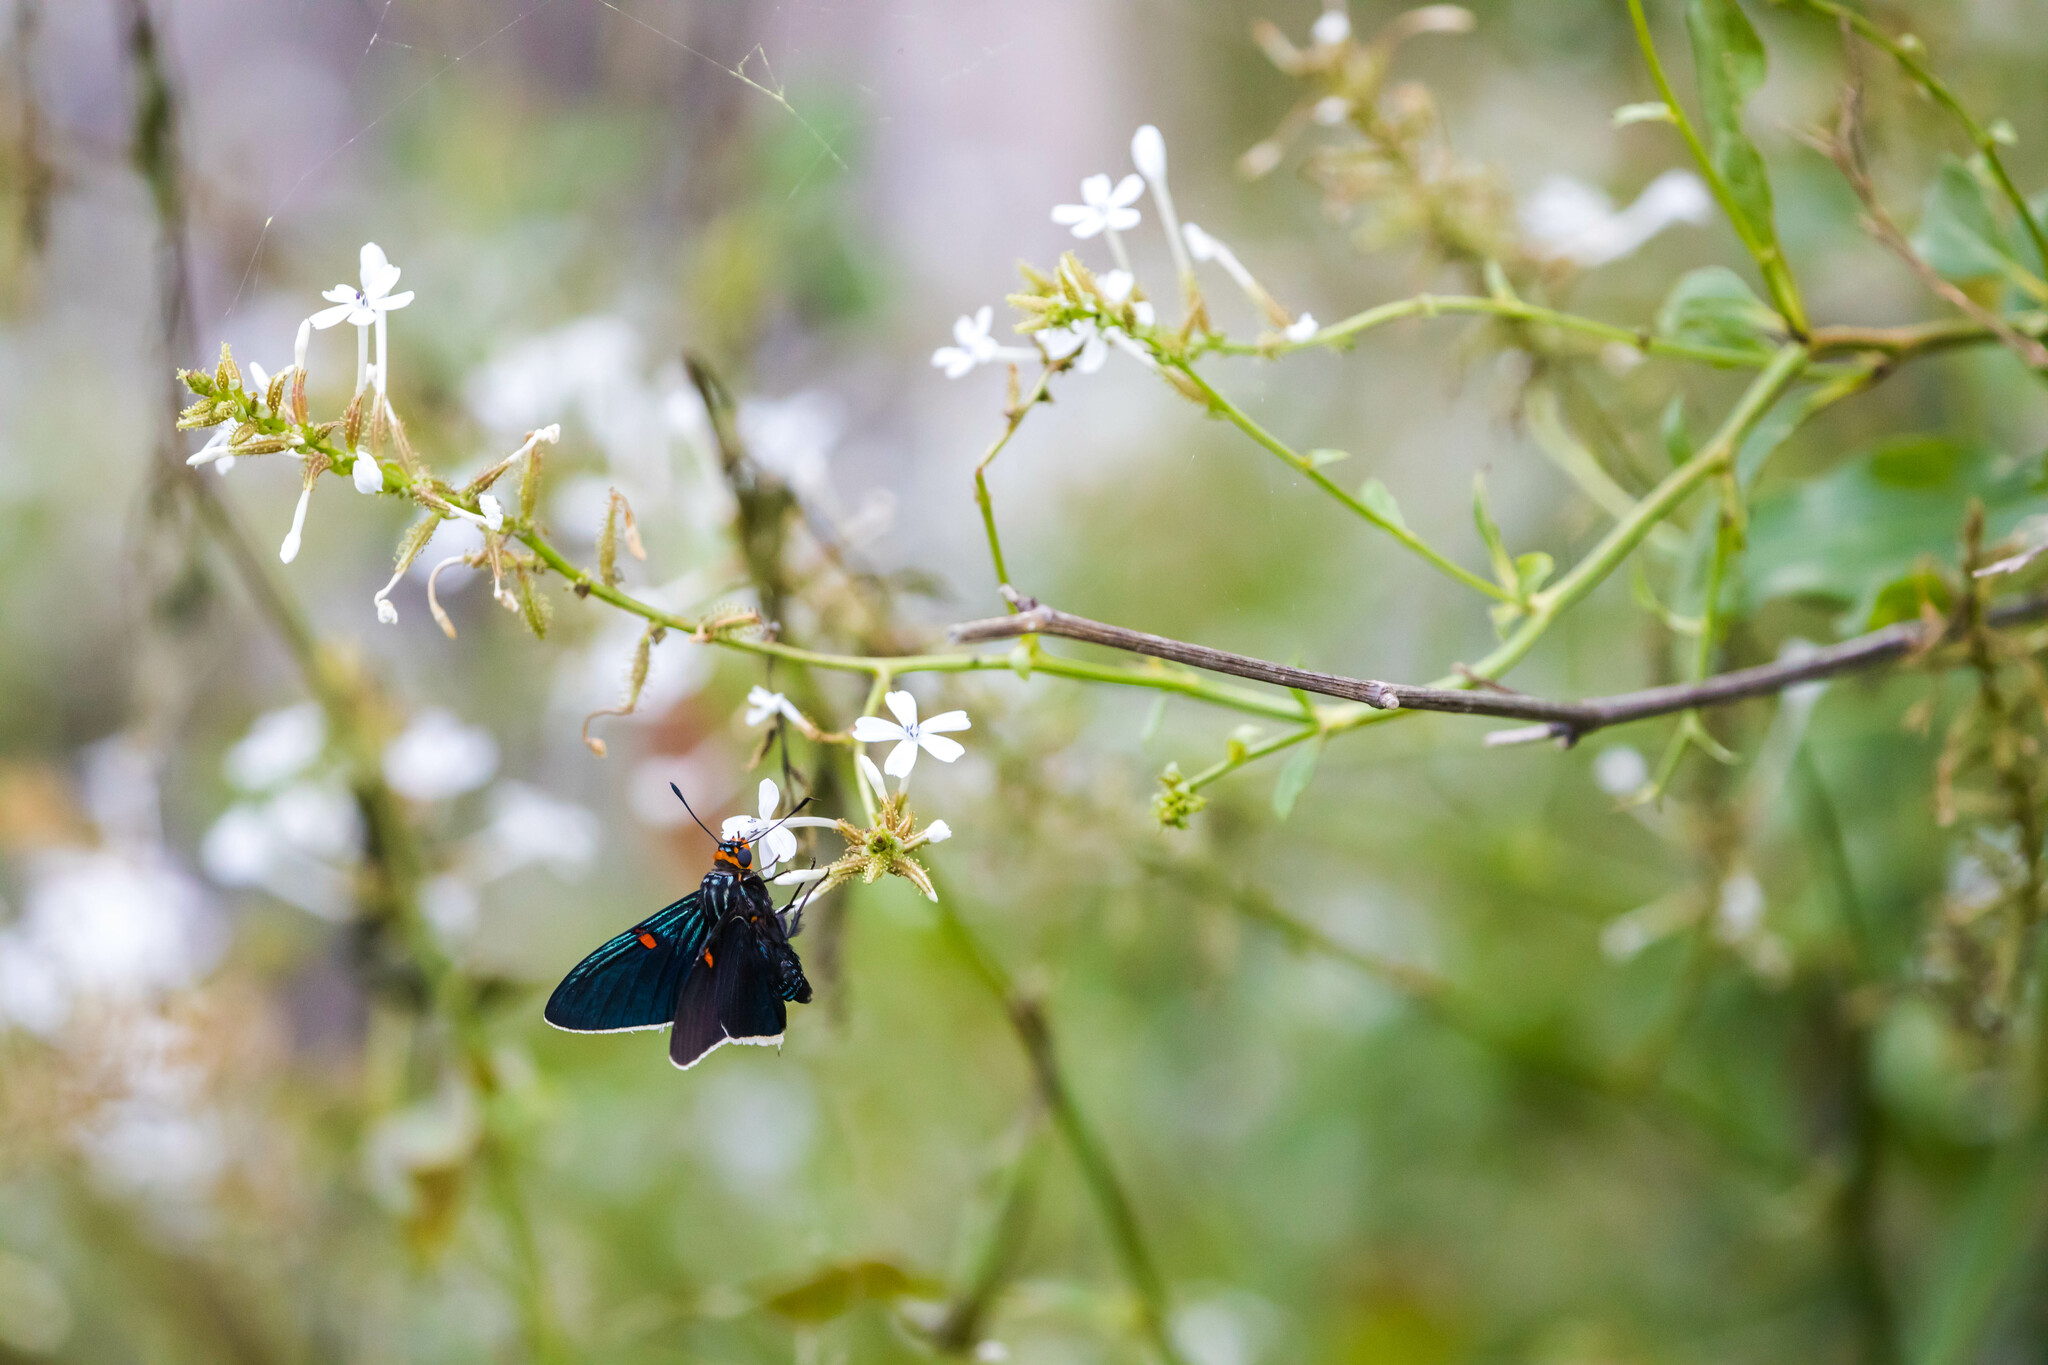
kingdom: Animalia
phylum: Arthropoda
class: Insecta
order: Lepidoptera
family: Hesperiidae
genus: Phocides
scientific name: Phocides lilea
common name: Guava skipper
